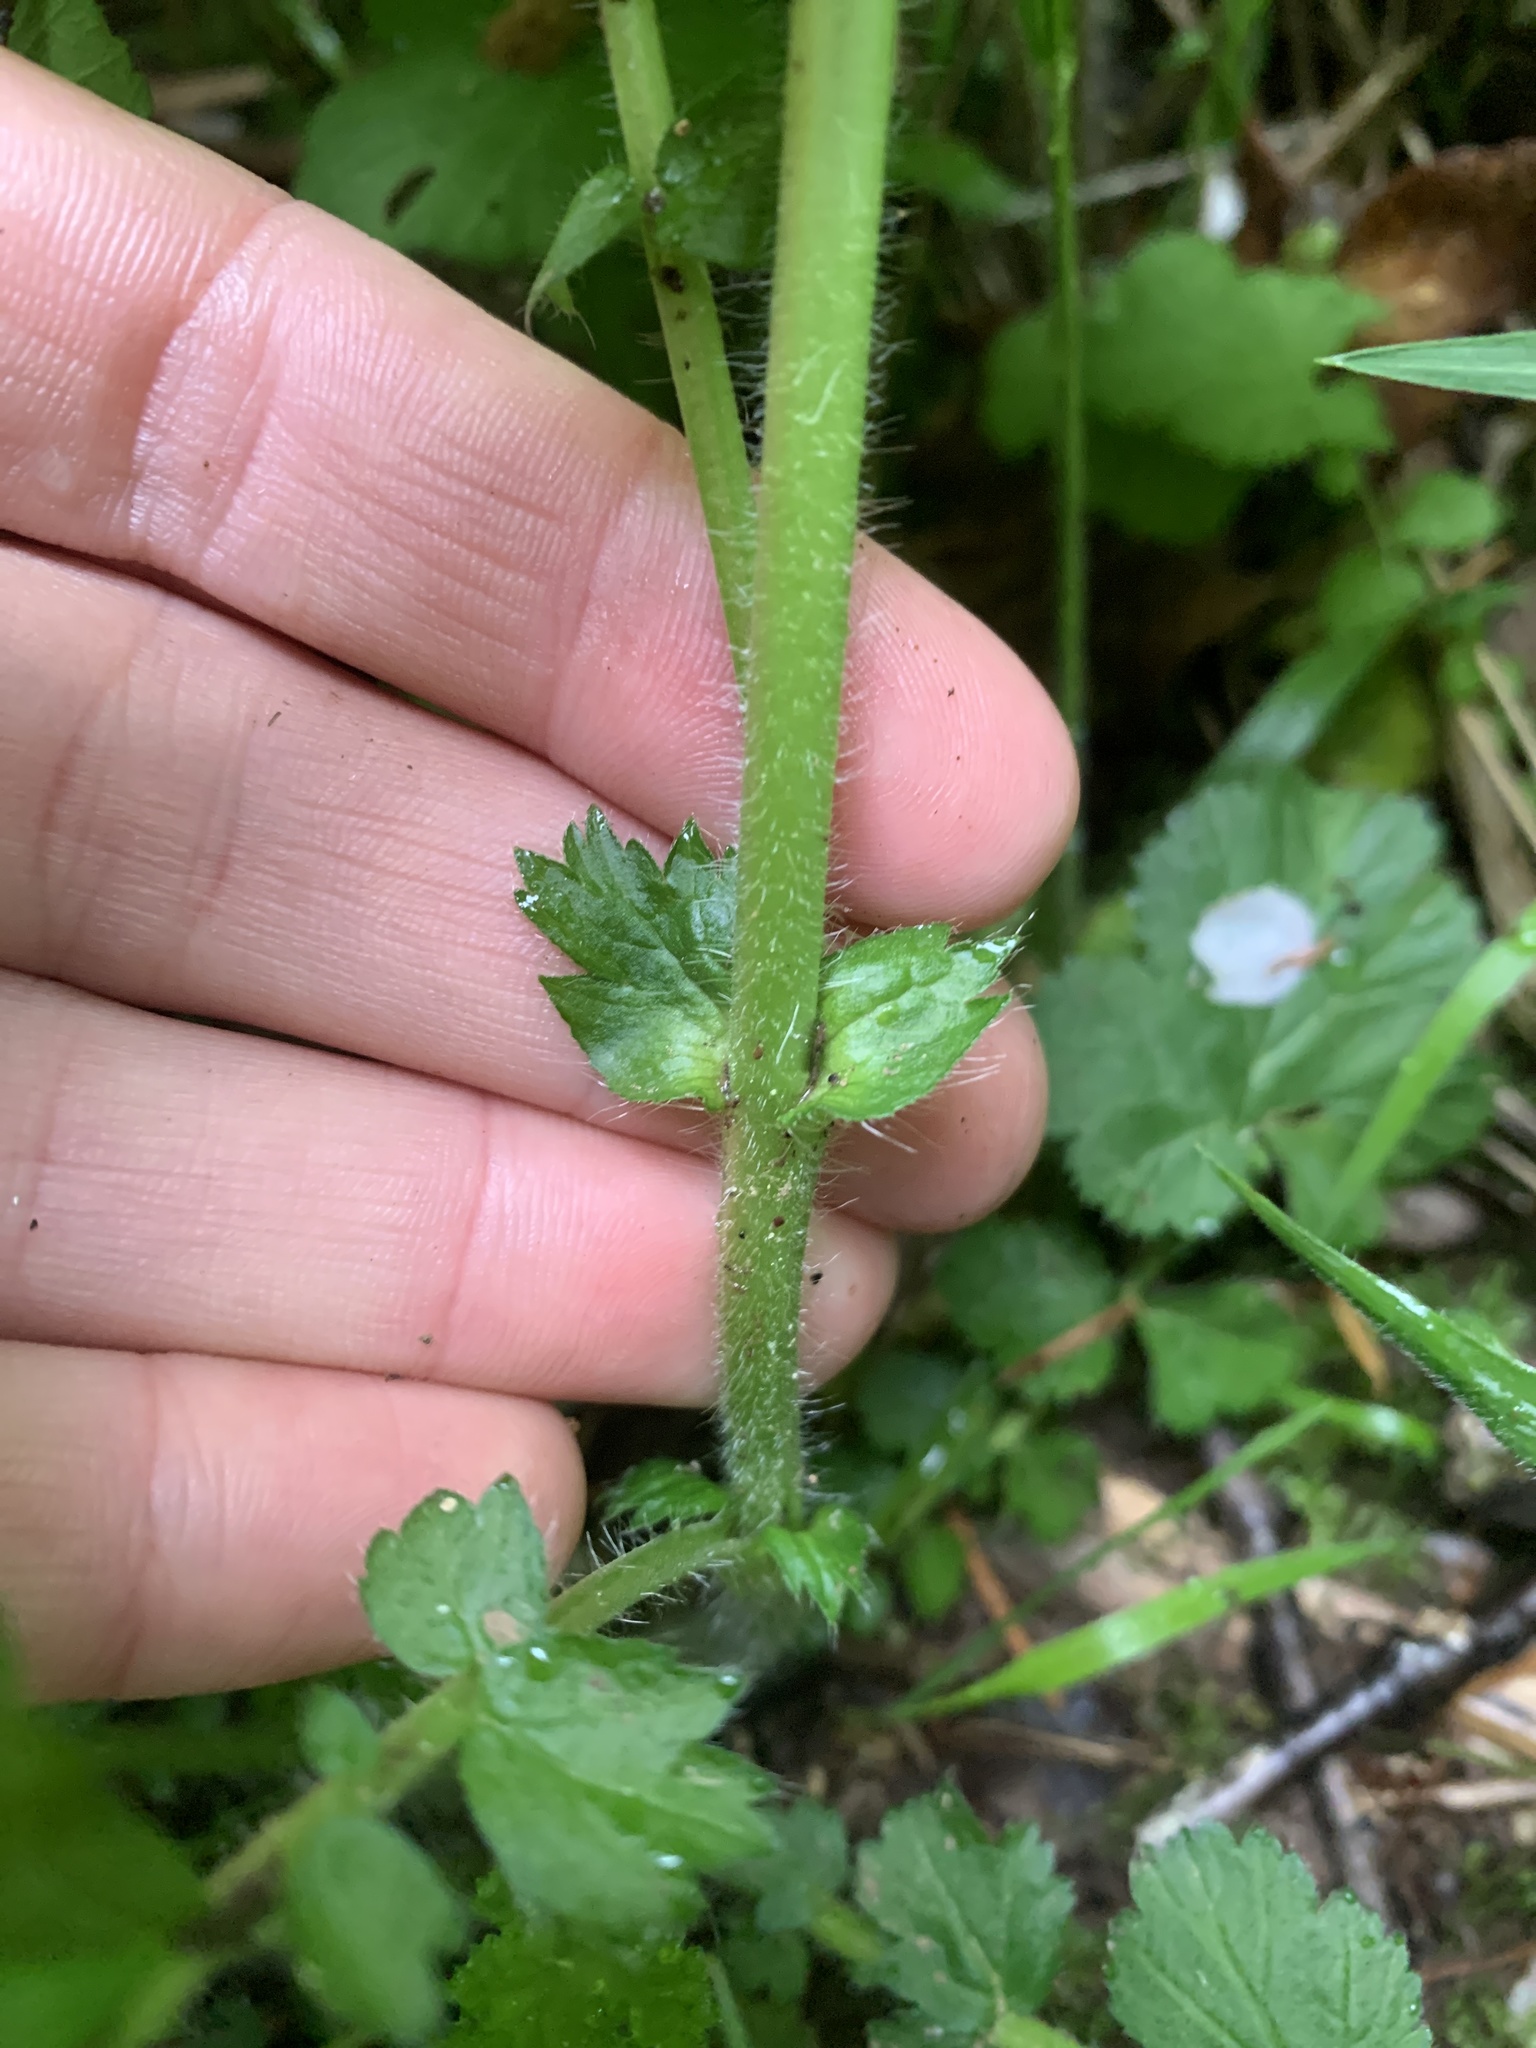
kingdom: Plantae
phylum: Tracheophyta
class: Magnoliopsida
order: Rosales
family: Rosaceae
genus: Geum
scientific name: Geum macrophyllum
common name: Large-leaved avens
